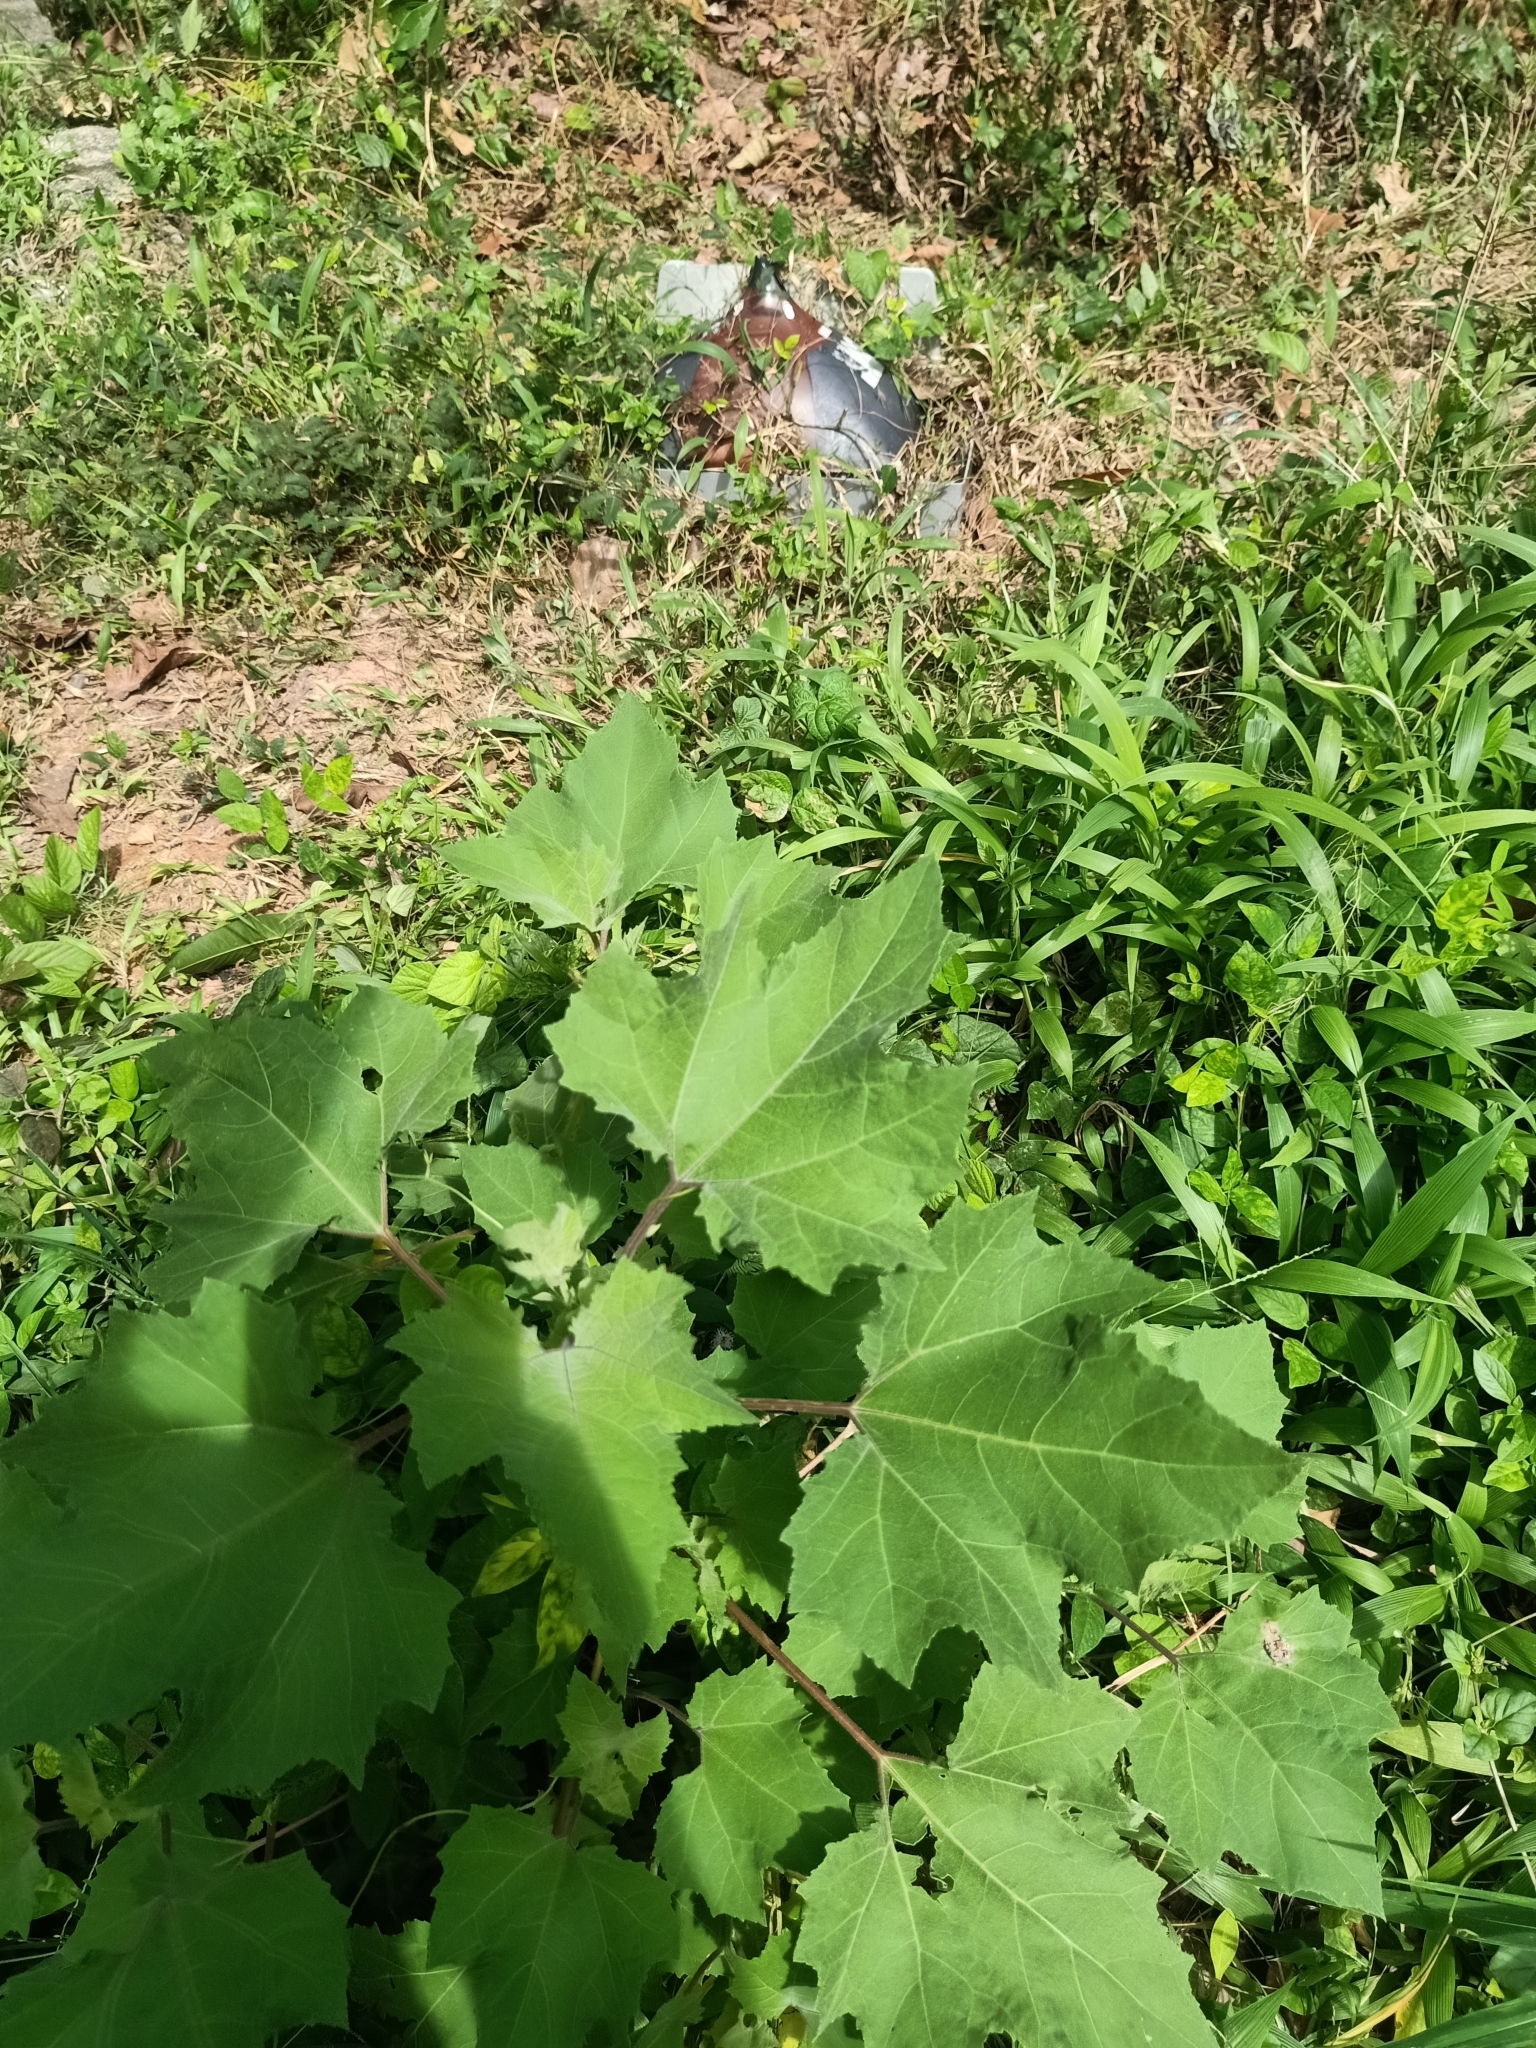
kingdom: Plantae
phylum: Tracheophyta
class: Magnoliopsida
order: Asterales
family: Asteraceae
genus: Xanthium
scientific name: Xanthium strumarium
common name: Rough cocklebur
